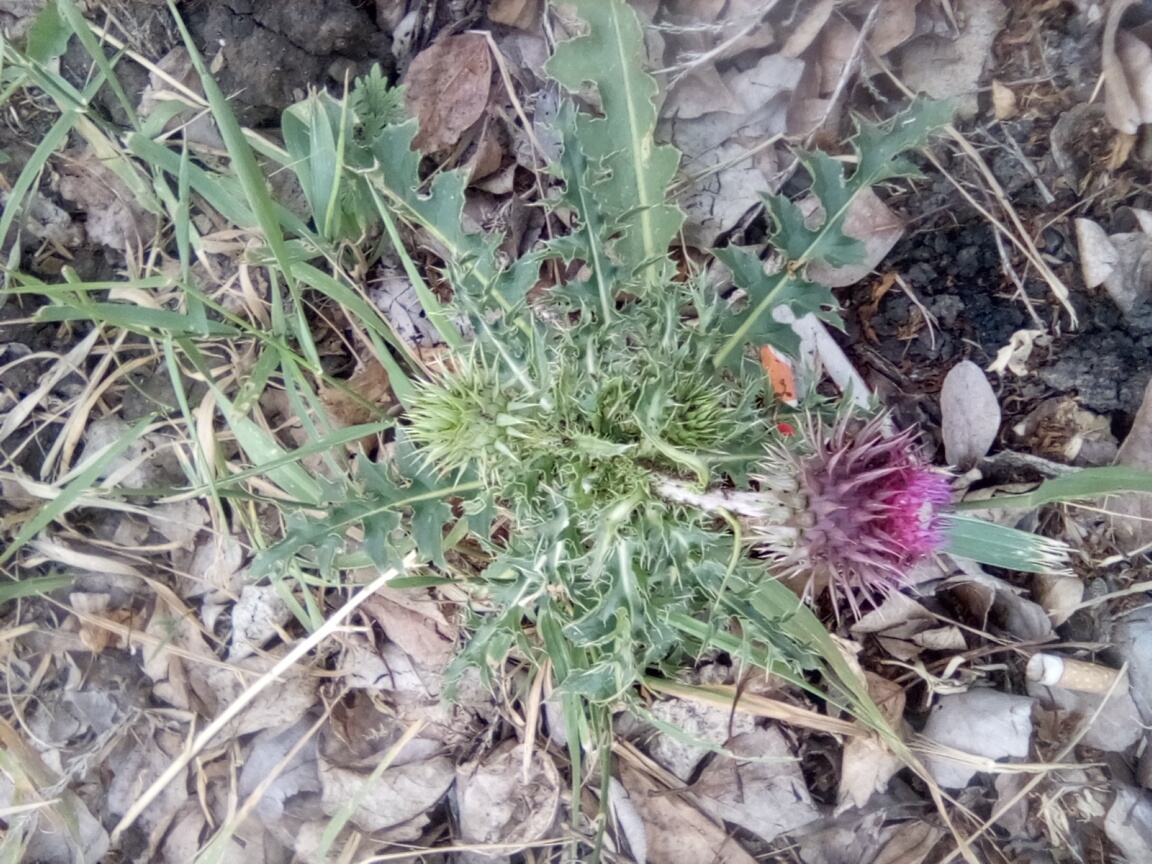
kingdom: Plantae
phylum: Tracheophyta
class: Magnoliopsida
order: Asterales
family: Asteraceae
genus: Carduus
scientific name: Carduus nutans
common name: Musk thistle
